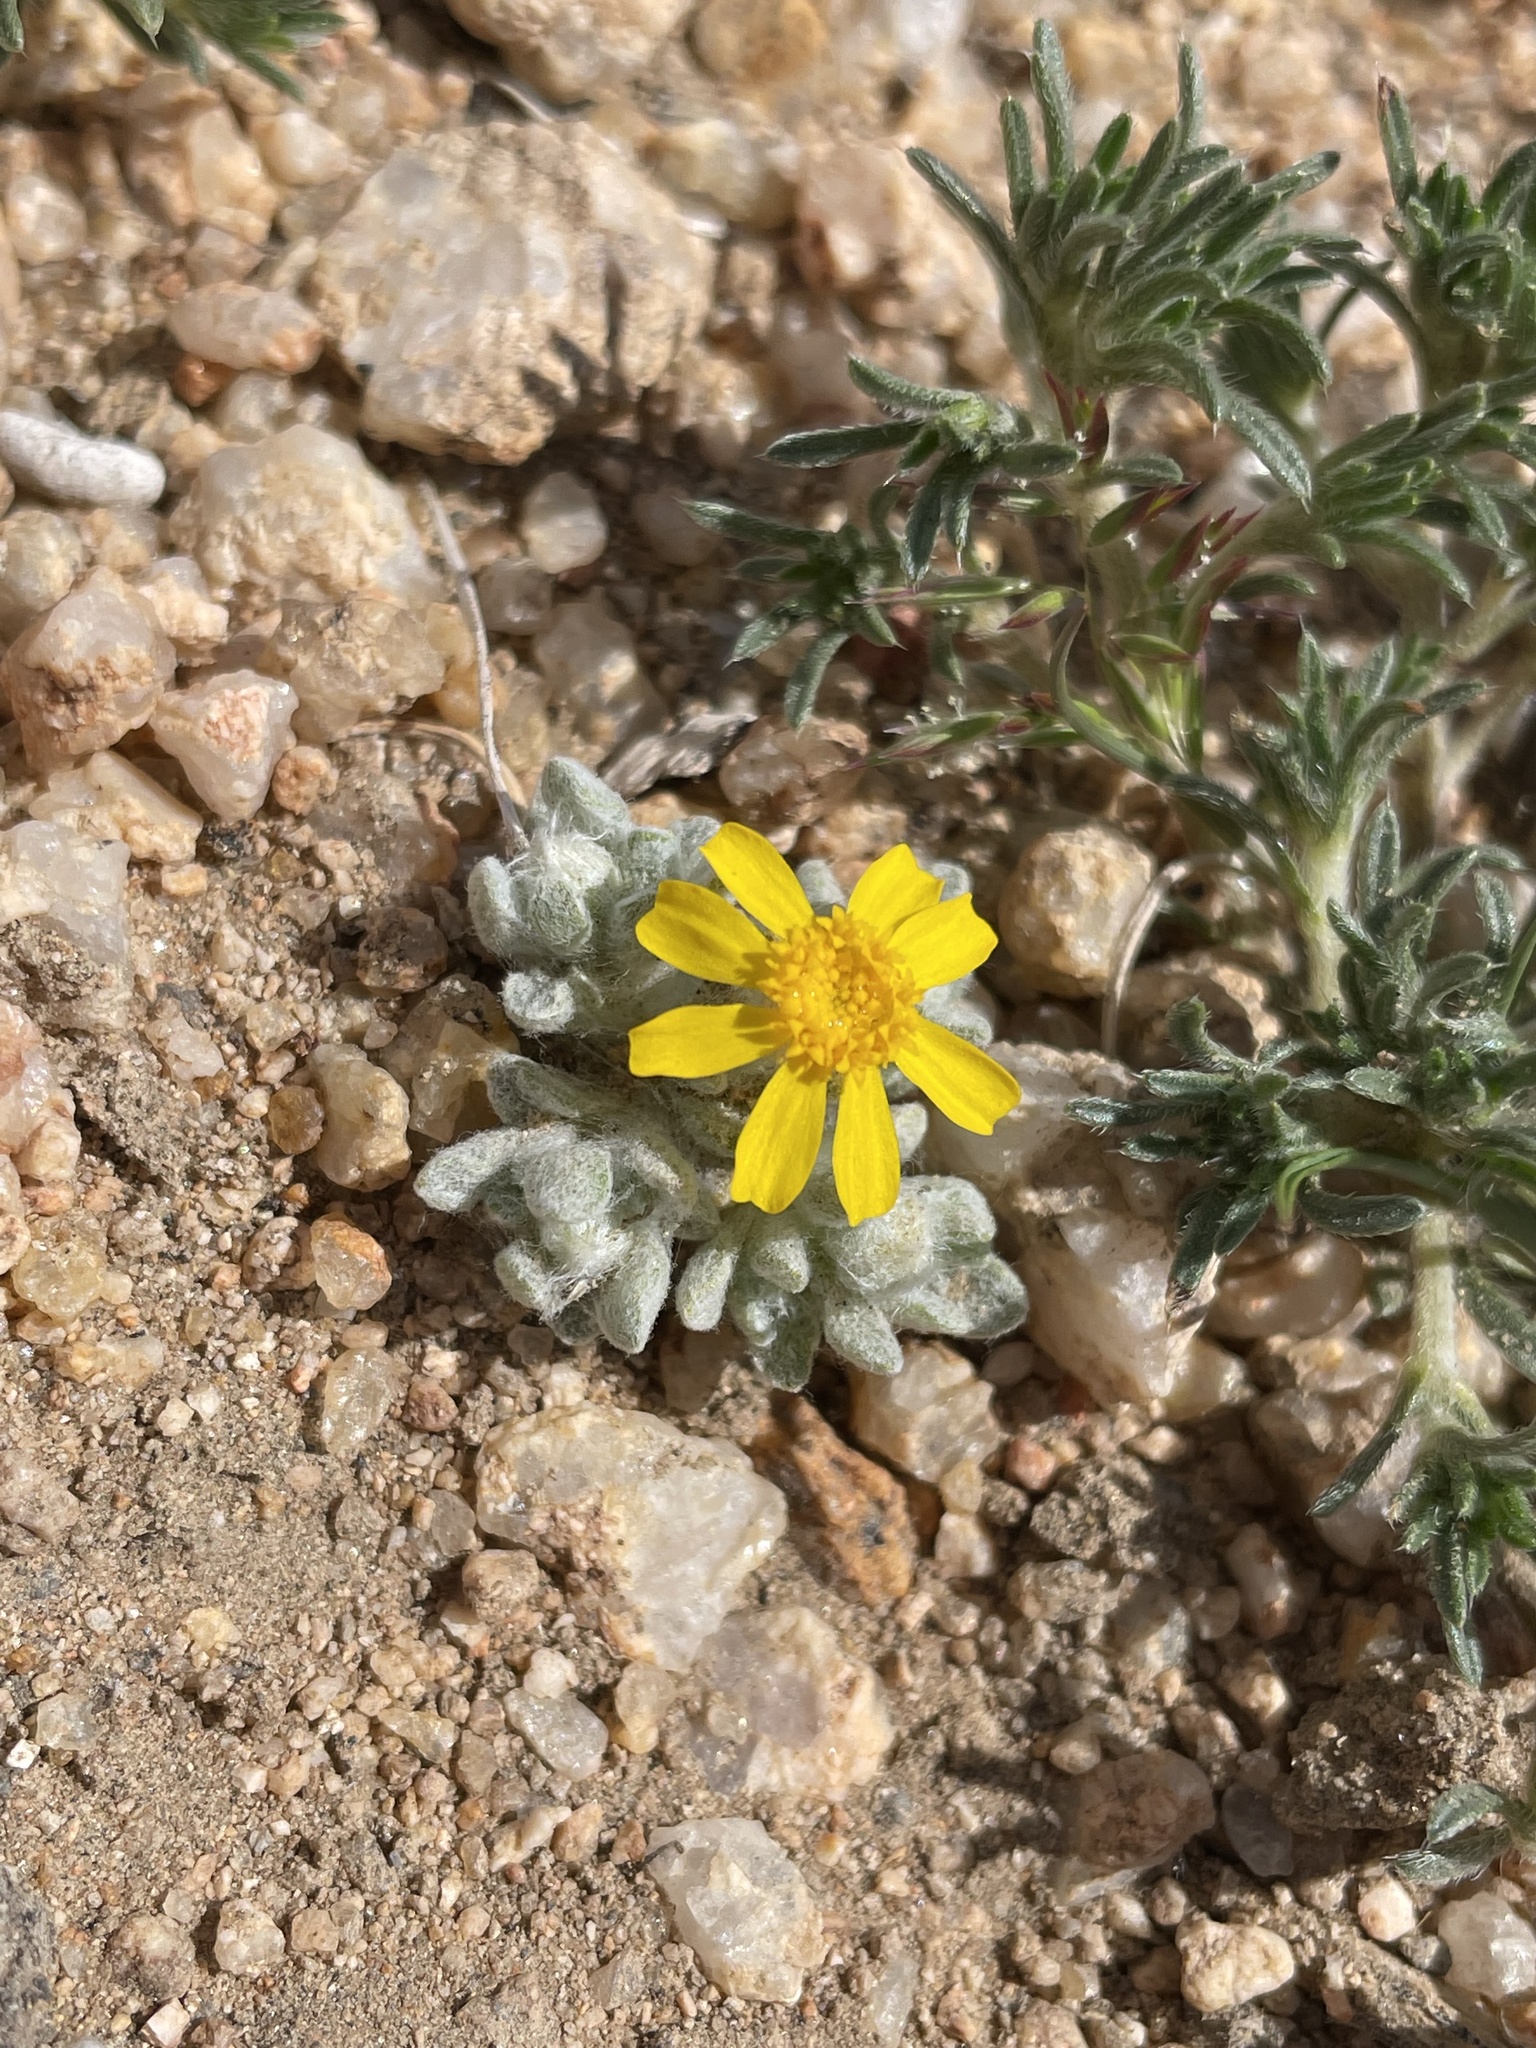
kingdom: Plantae
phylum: Tracheophyta
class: Magnoliopsida
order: Asterales
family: Asteraceae
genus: Eriophyllum
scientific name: Eriophyllum wallacei
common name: Wallace's woolly daisy
